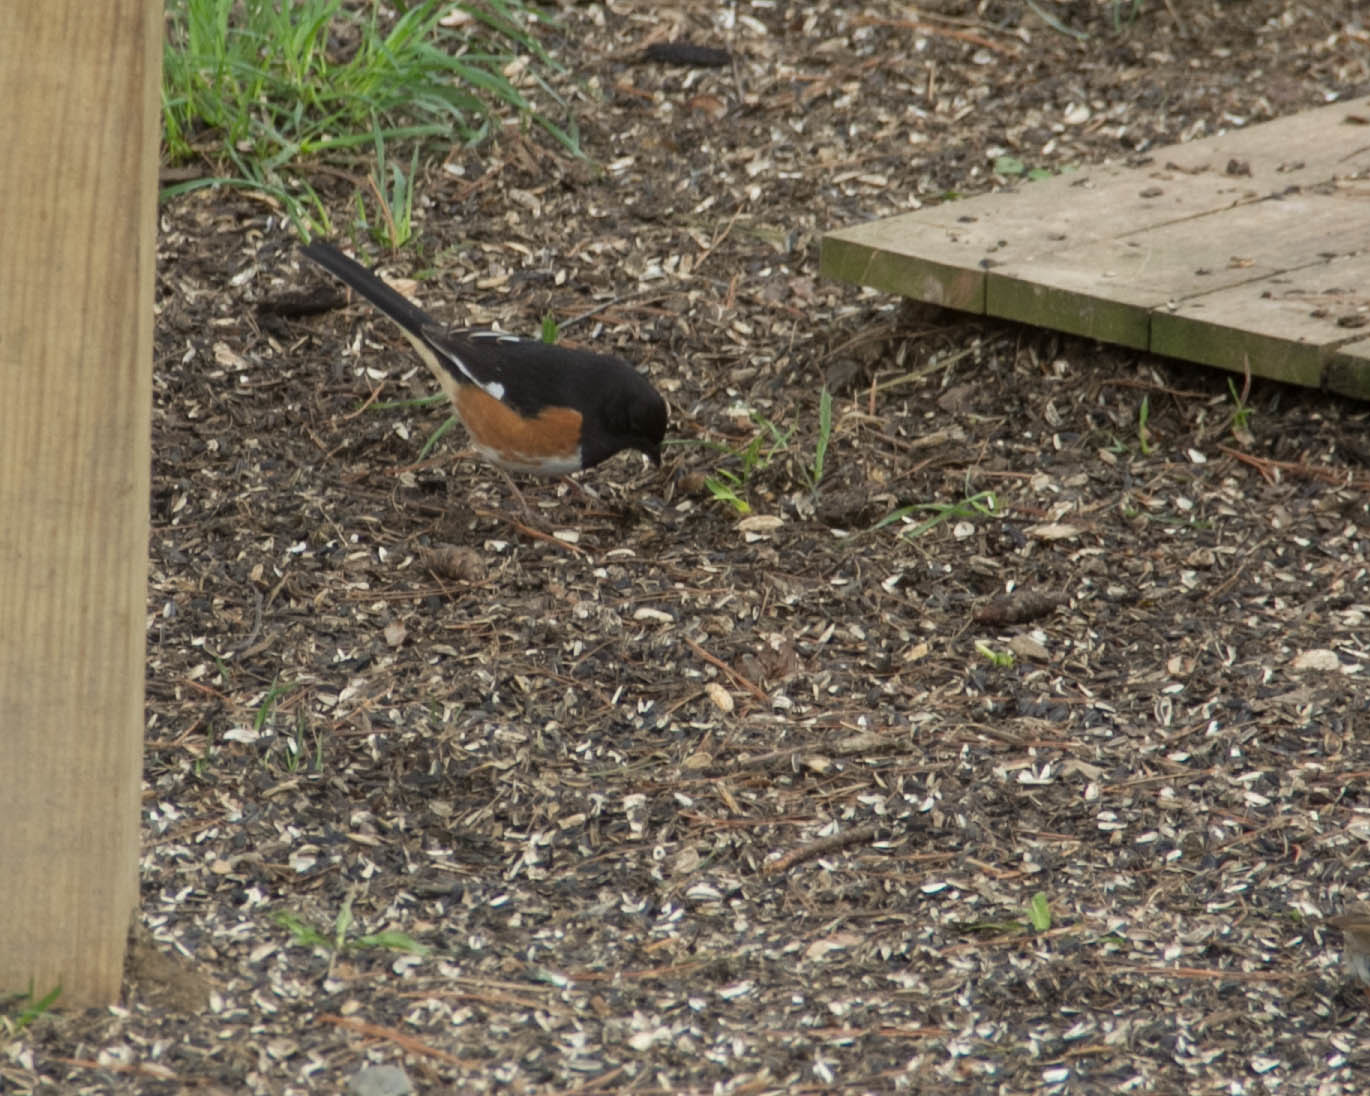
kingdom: Animalia
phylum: Chordata
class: Aves
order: Passeriformes
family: Passerellidae
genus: Pipilo
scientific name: Pipilo erythrophthalmus
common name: Eastern towhee
